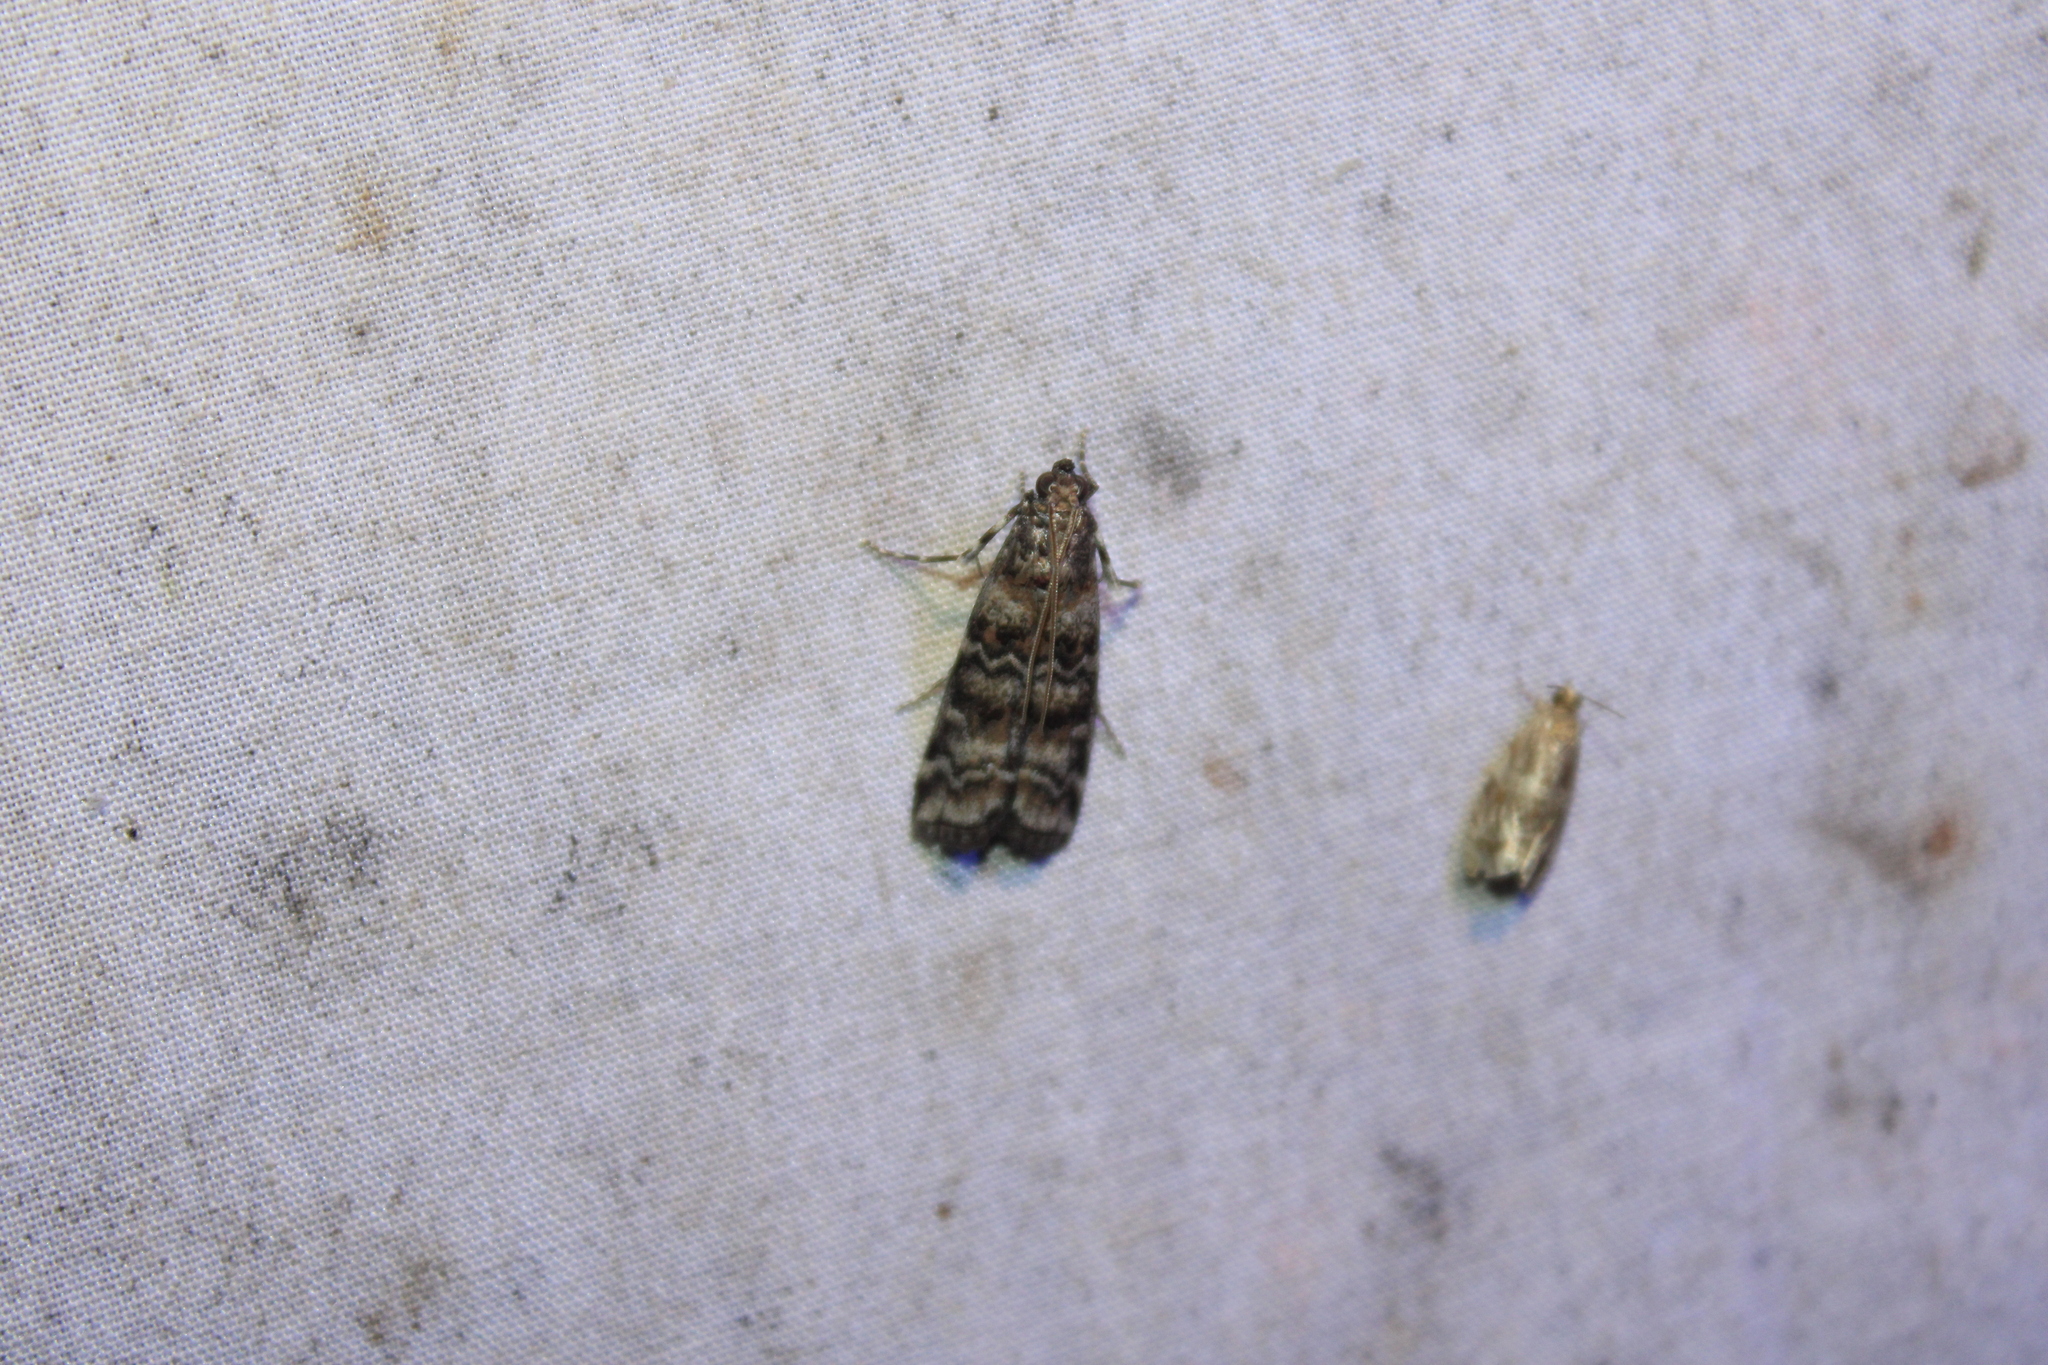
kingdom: Animalia
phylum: Arthropoda
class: Insecta
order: Lepidoptera
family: Pyralidae
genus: Dioryctria
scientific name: Dioryctria zimmermani
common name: Zimmerman pine moth
